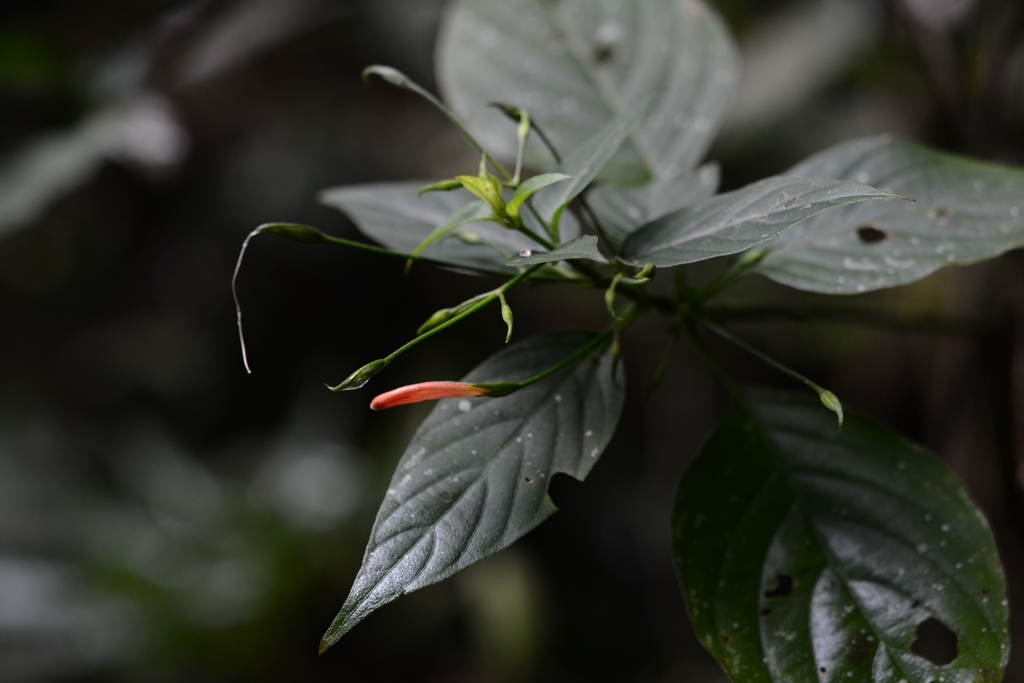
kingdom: Plantae
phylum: Tracheophyta
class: Magnoliopsida
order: Lamiales
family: Acanthaceae
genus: Dicliptera
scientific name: Dicliptera sciadephora
